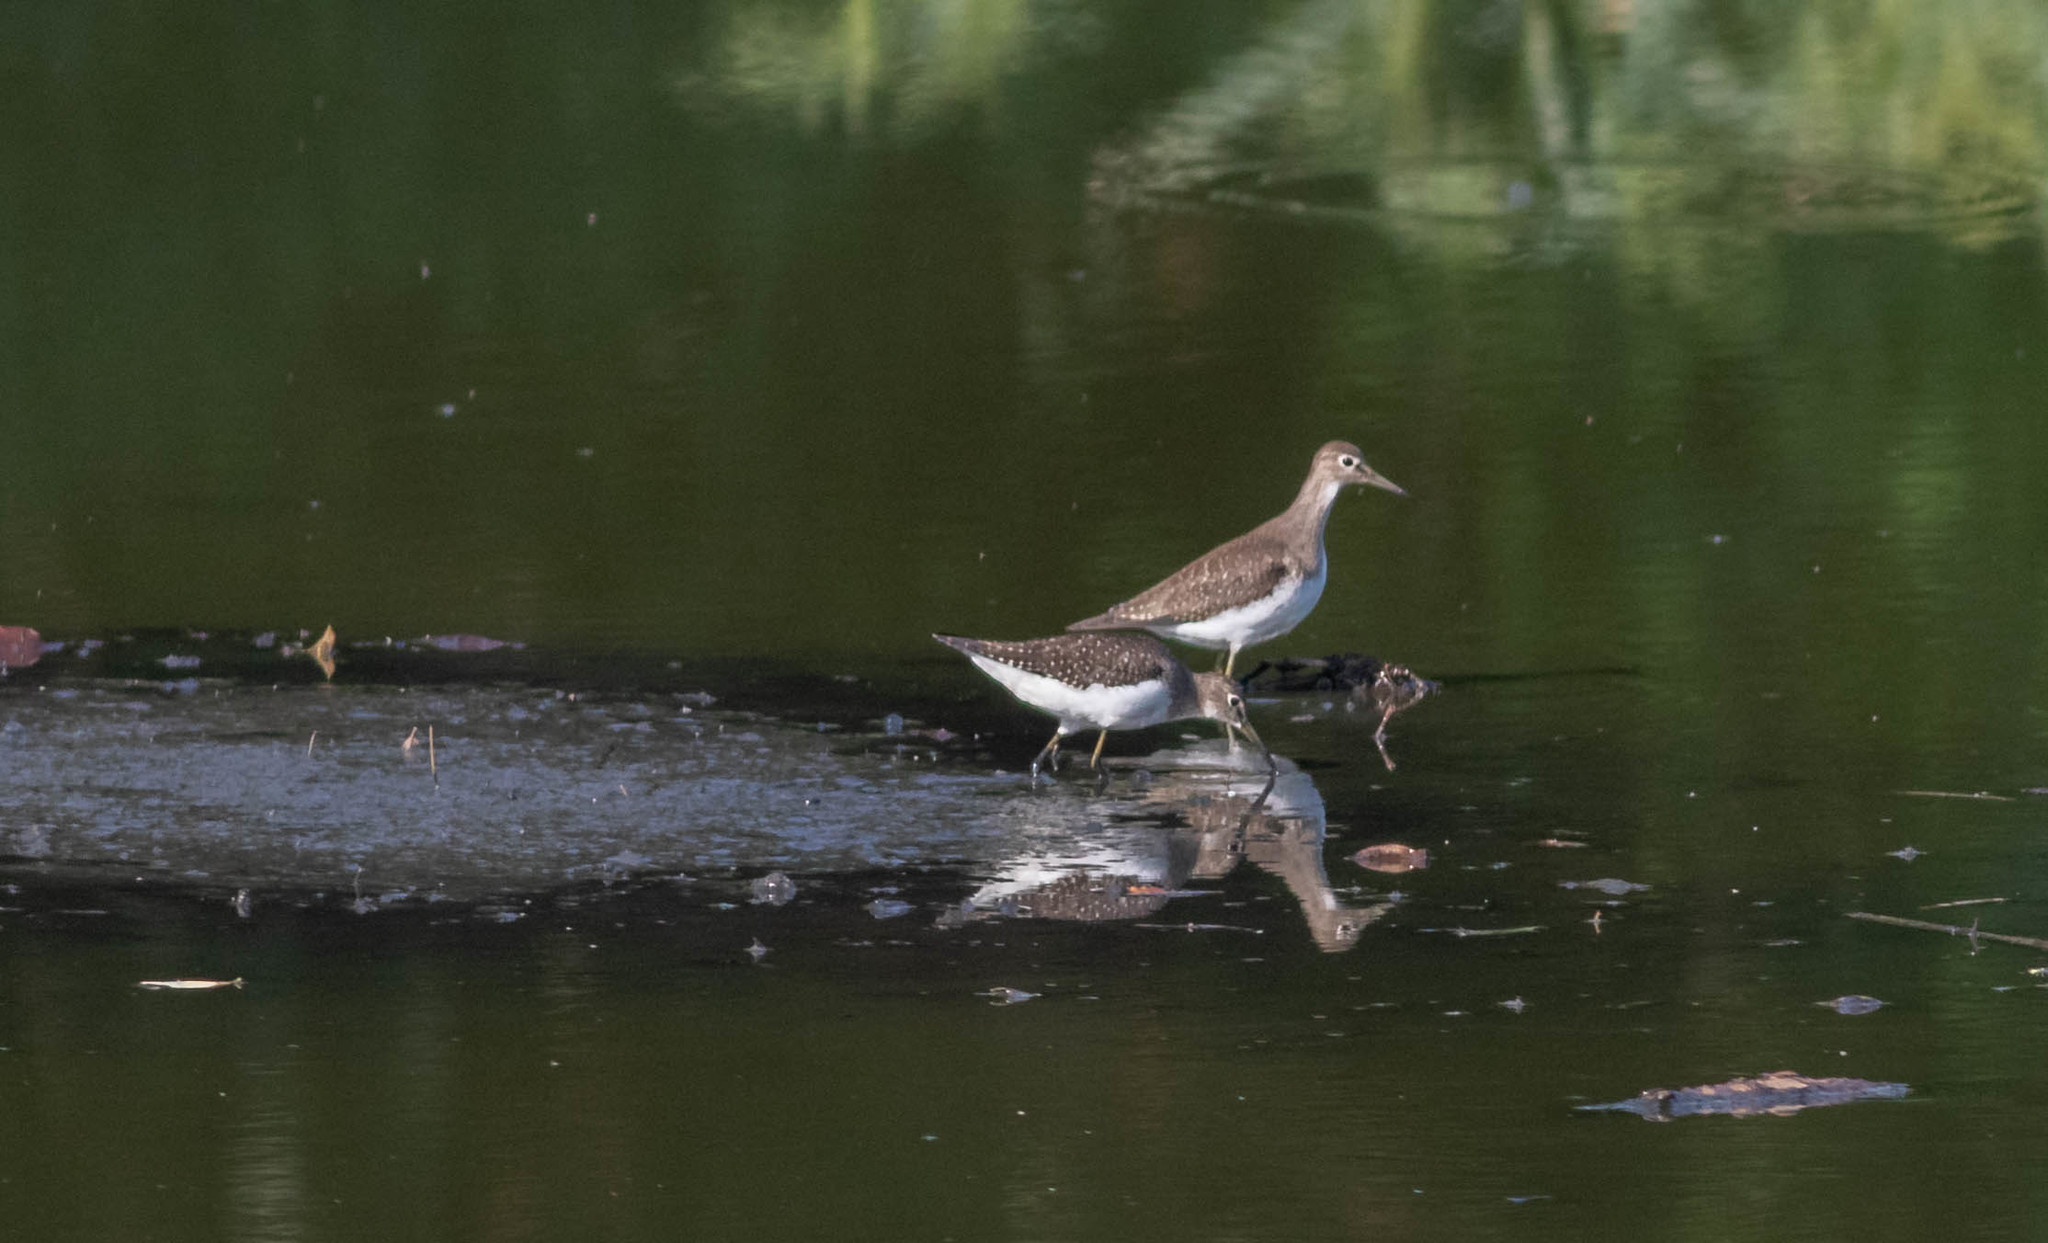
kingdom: Animalia
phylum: Chordata
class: Aves
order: Charadriiformes
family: Scolopacidae
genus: Tringa
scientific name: Tringa solitaria
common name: Solitary sandpiper
